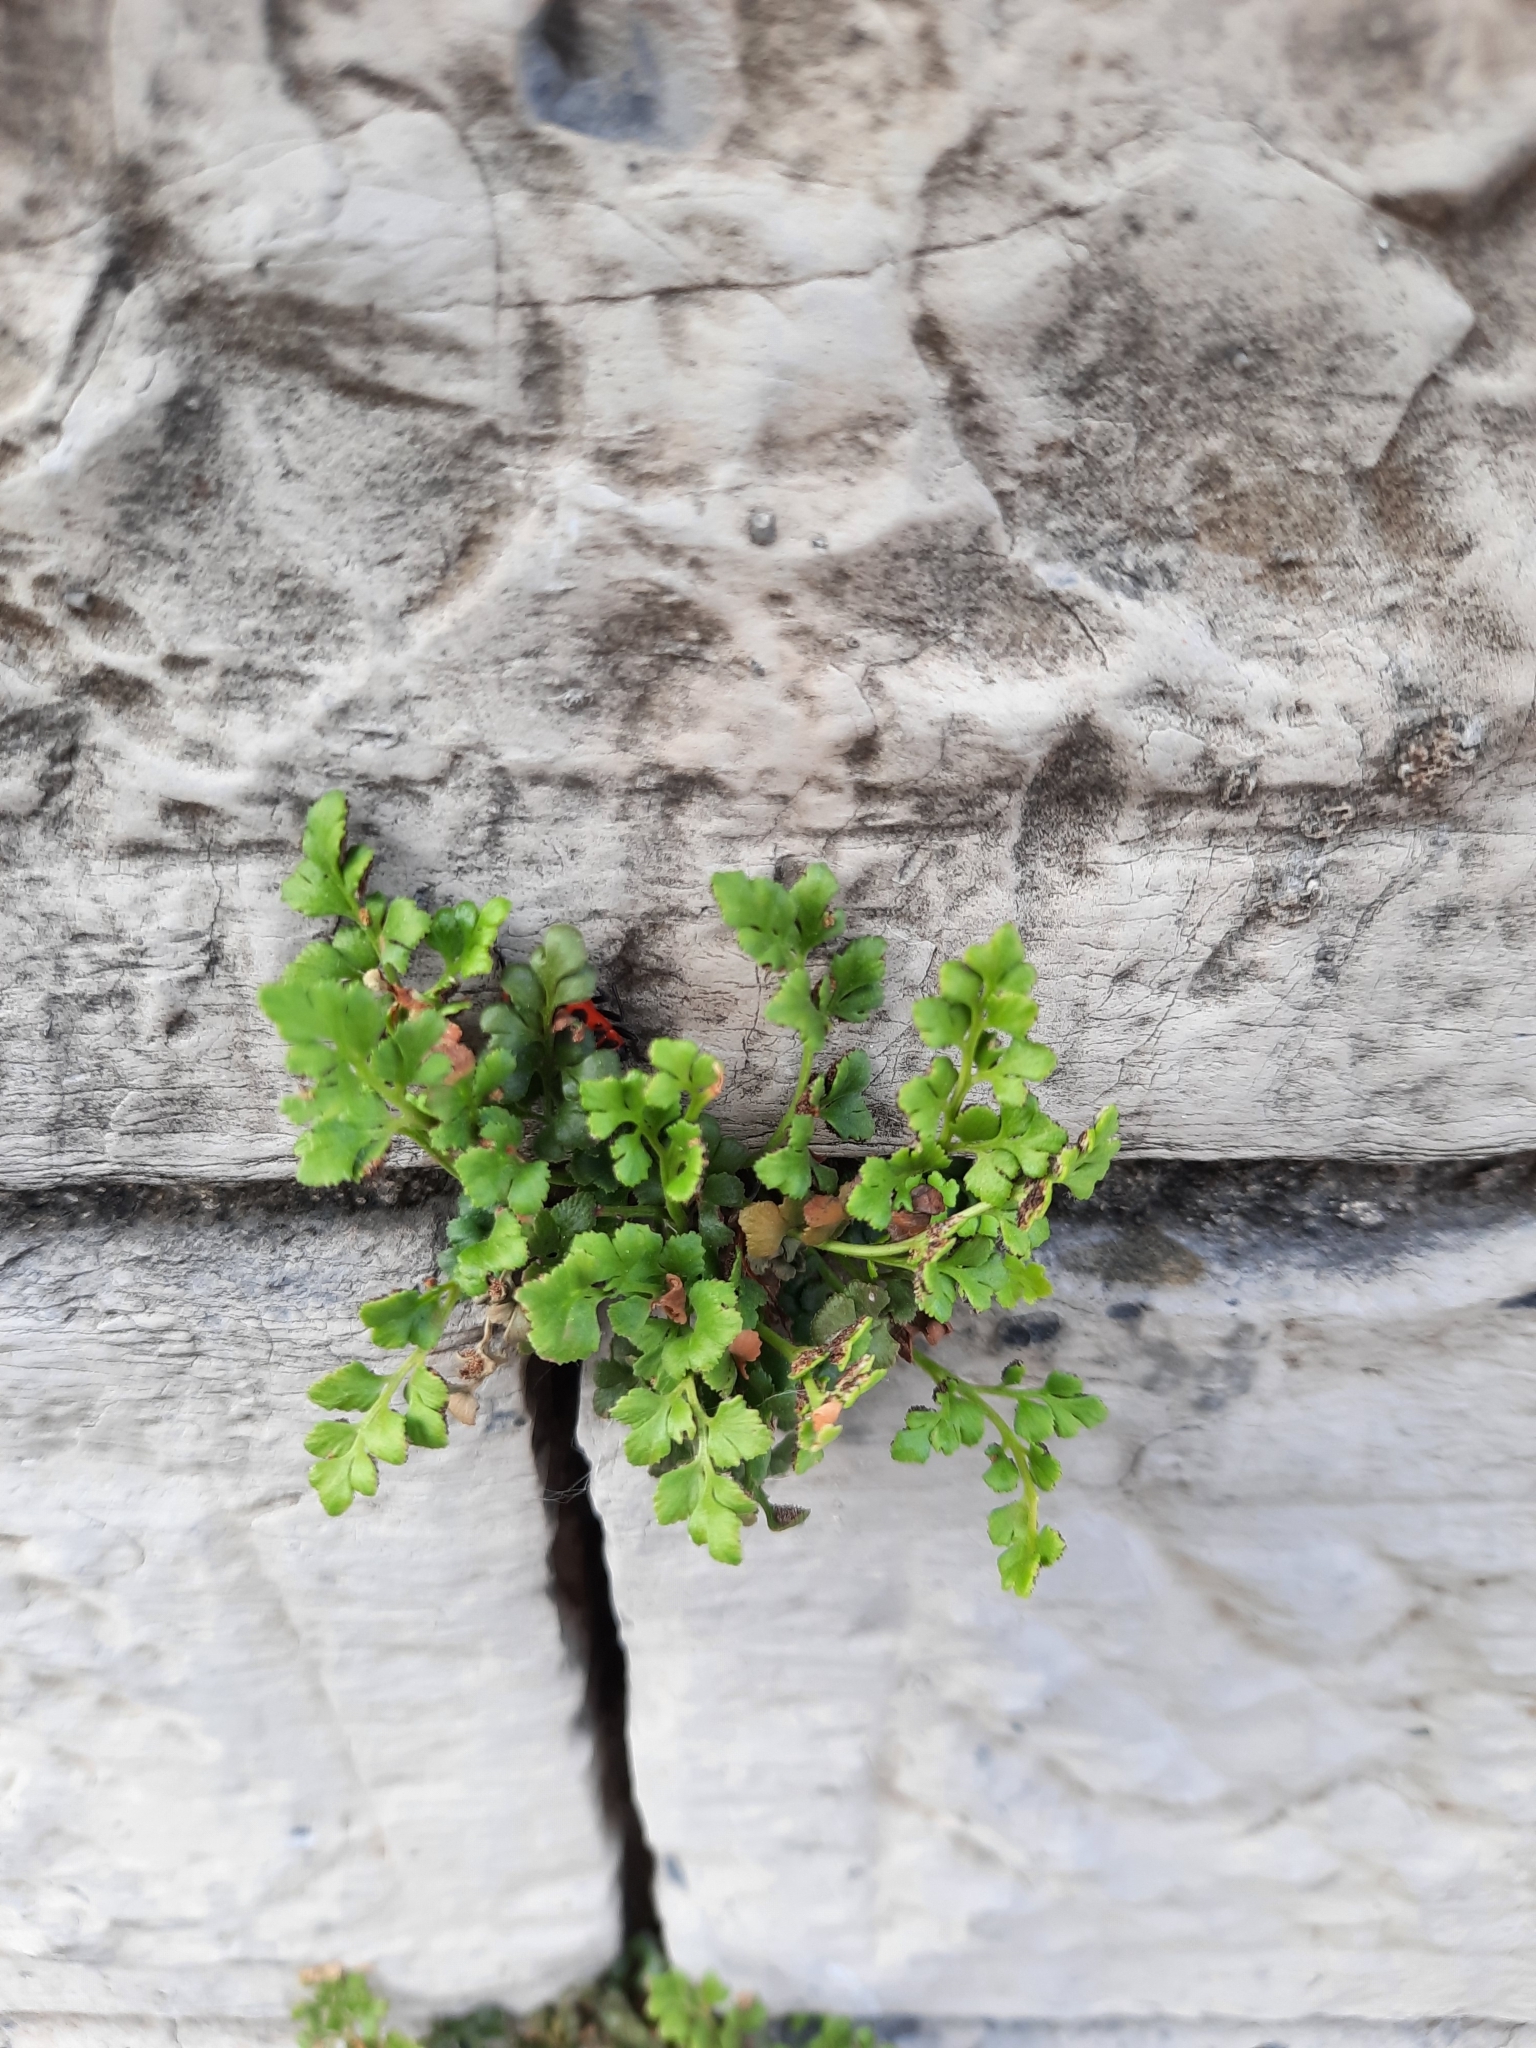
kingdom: Plantae
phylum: Tracheophyta
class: Polypodiopsida
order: Polypodiales
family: Aspleniaceae
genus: Asplenium
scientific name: Asplenium ruta-muraria
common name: Wall-rue
